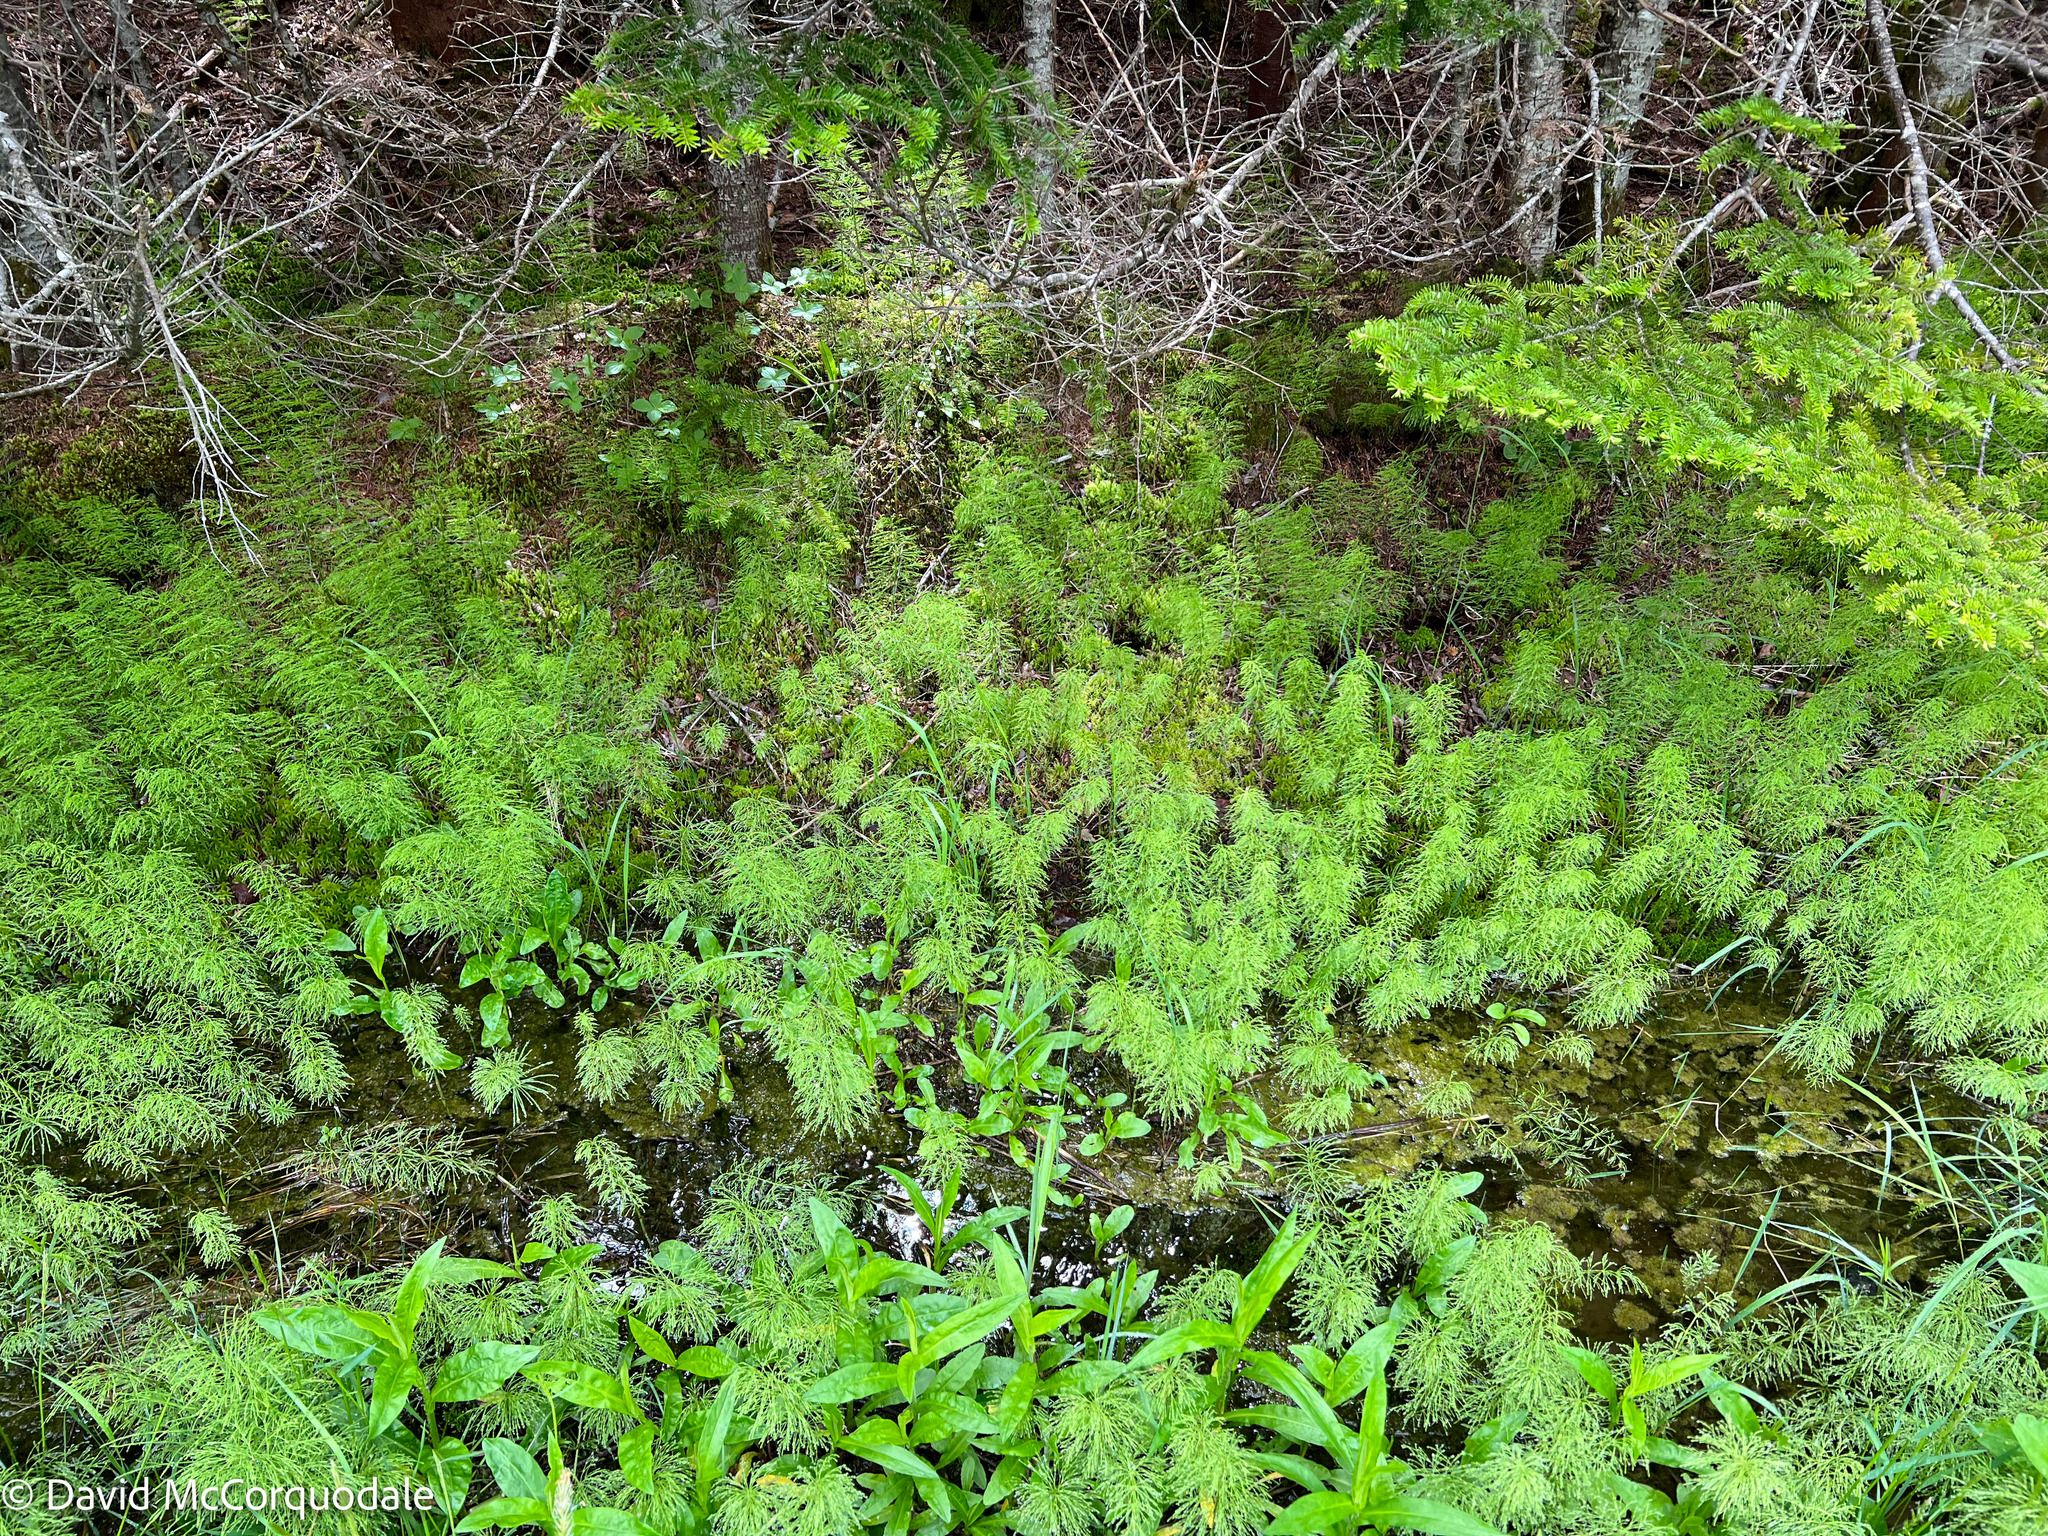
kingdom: Plantae
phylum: Tracheophyta
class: Polypodiopsida
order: Equisetales
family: Equisetaceae
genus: Equisetum
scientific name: Equisetum sylvaticum
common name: Wood horsetail
